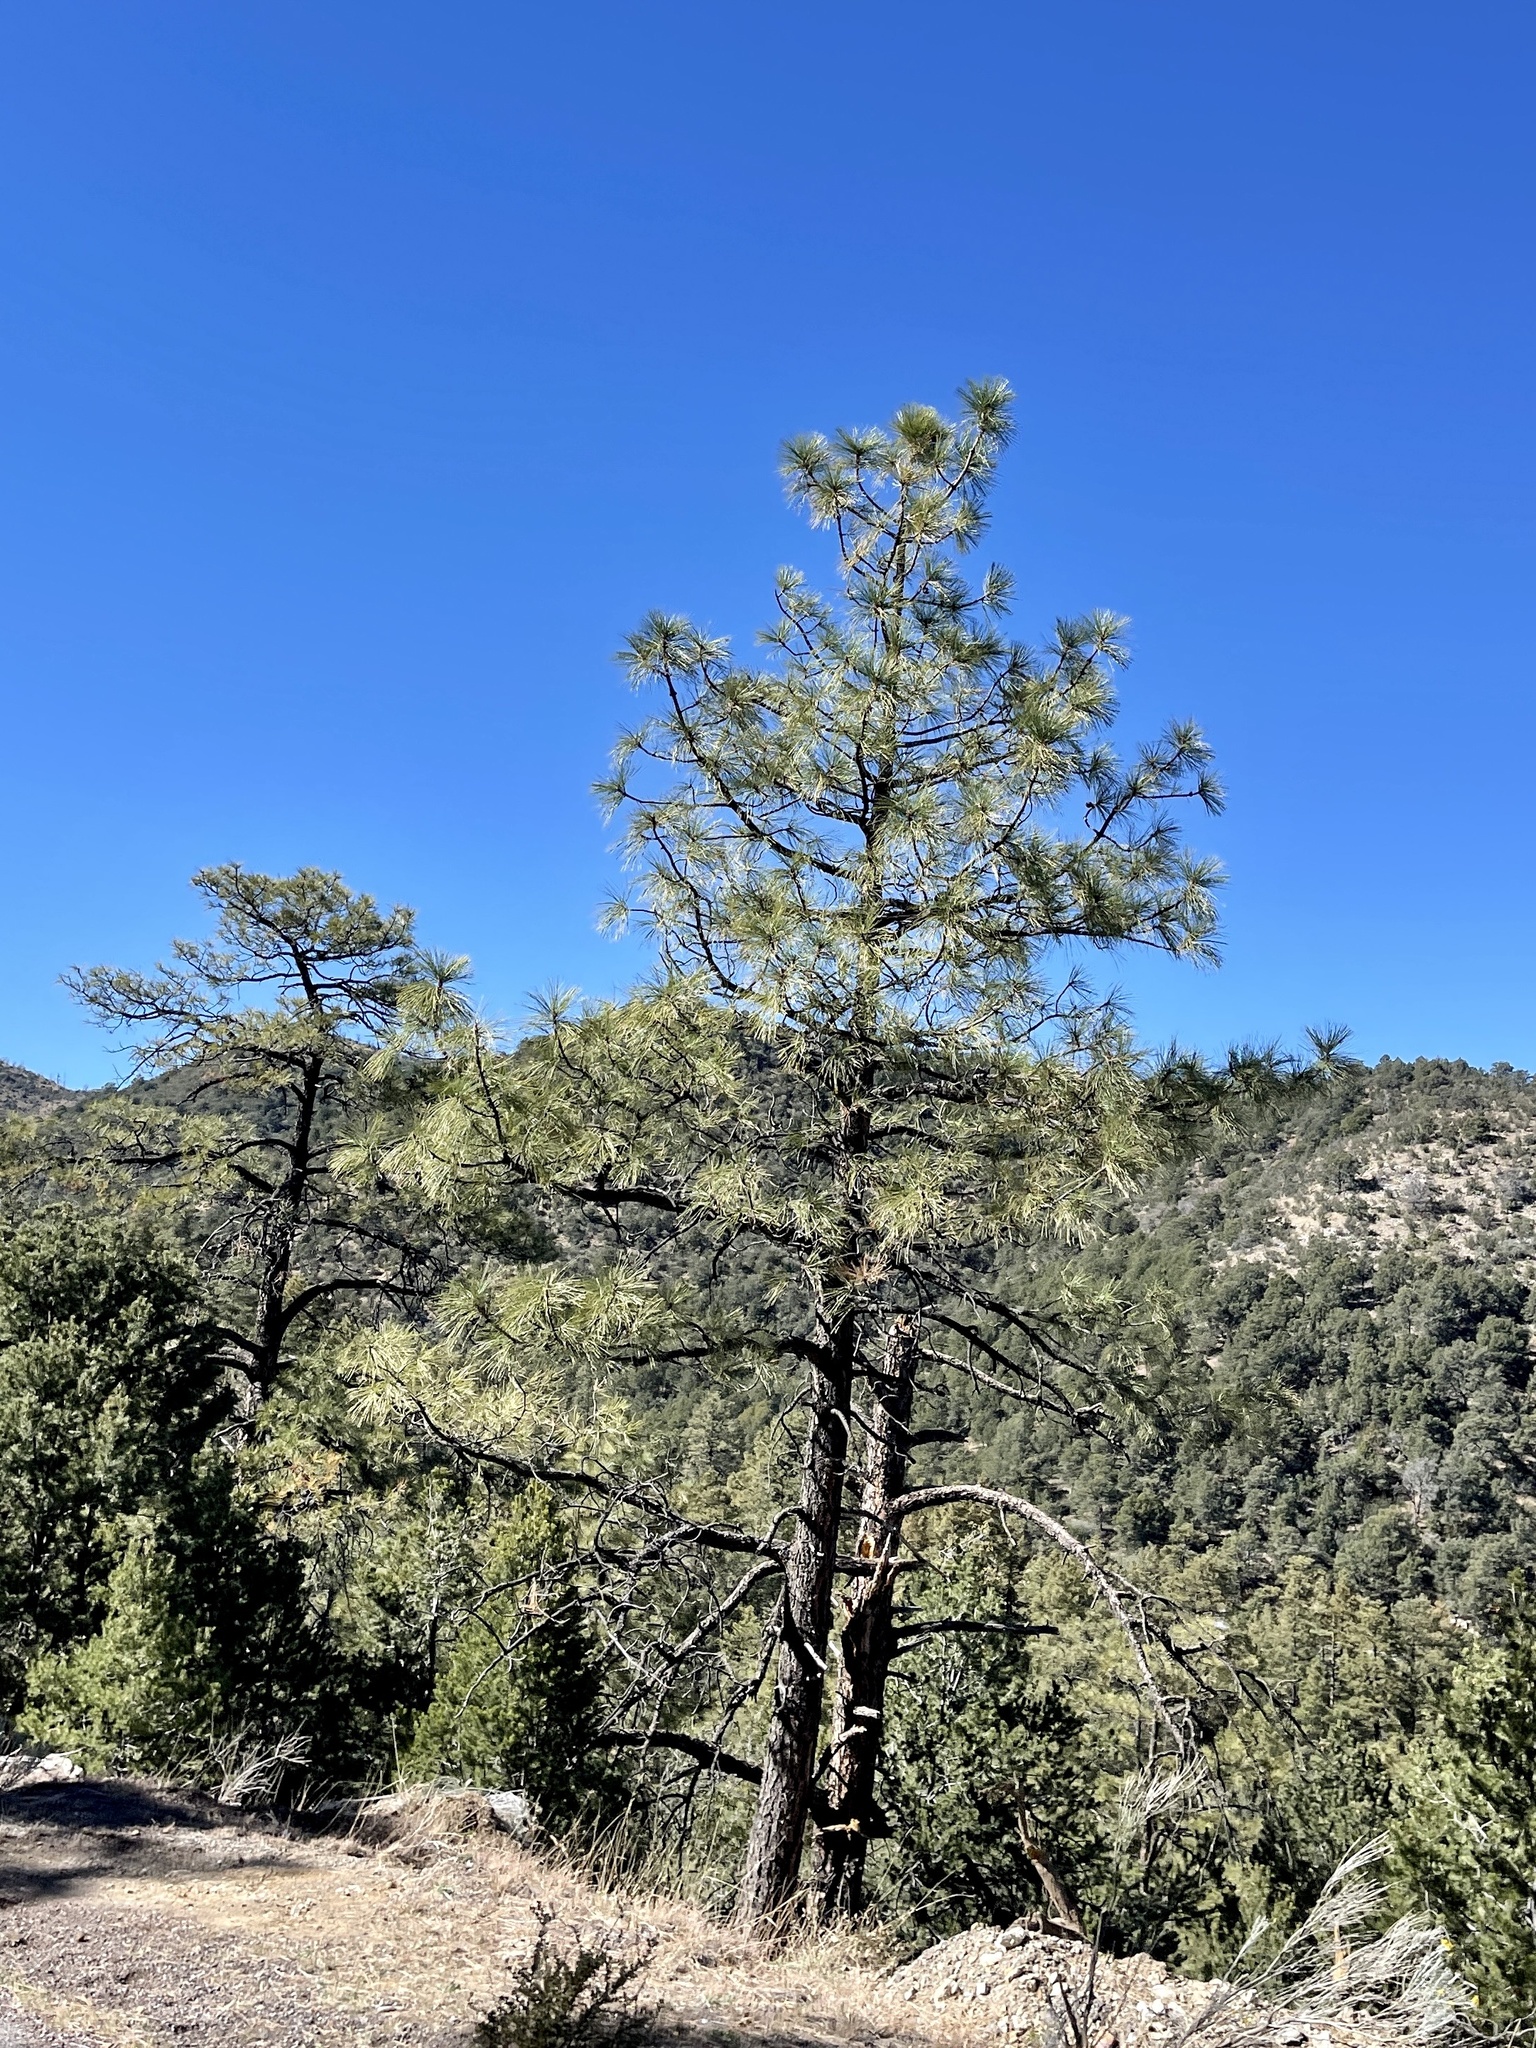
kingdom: Plantae
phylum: Tracheophyta
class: Pinopsida
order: Pinales
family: Pinaceae
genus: Pinus
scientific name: Pinus ponderosa
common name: Western yellow-pine
